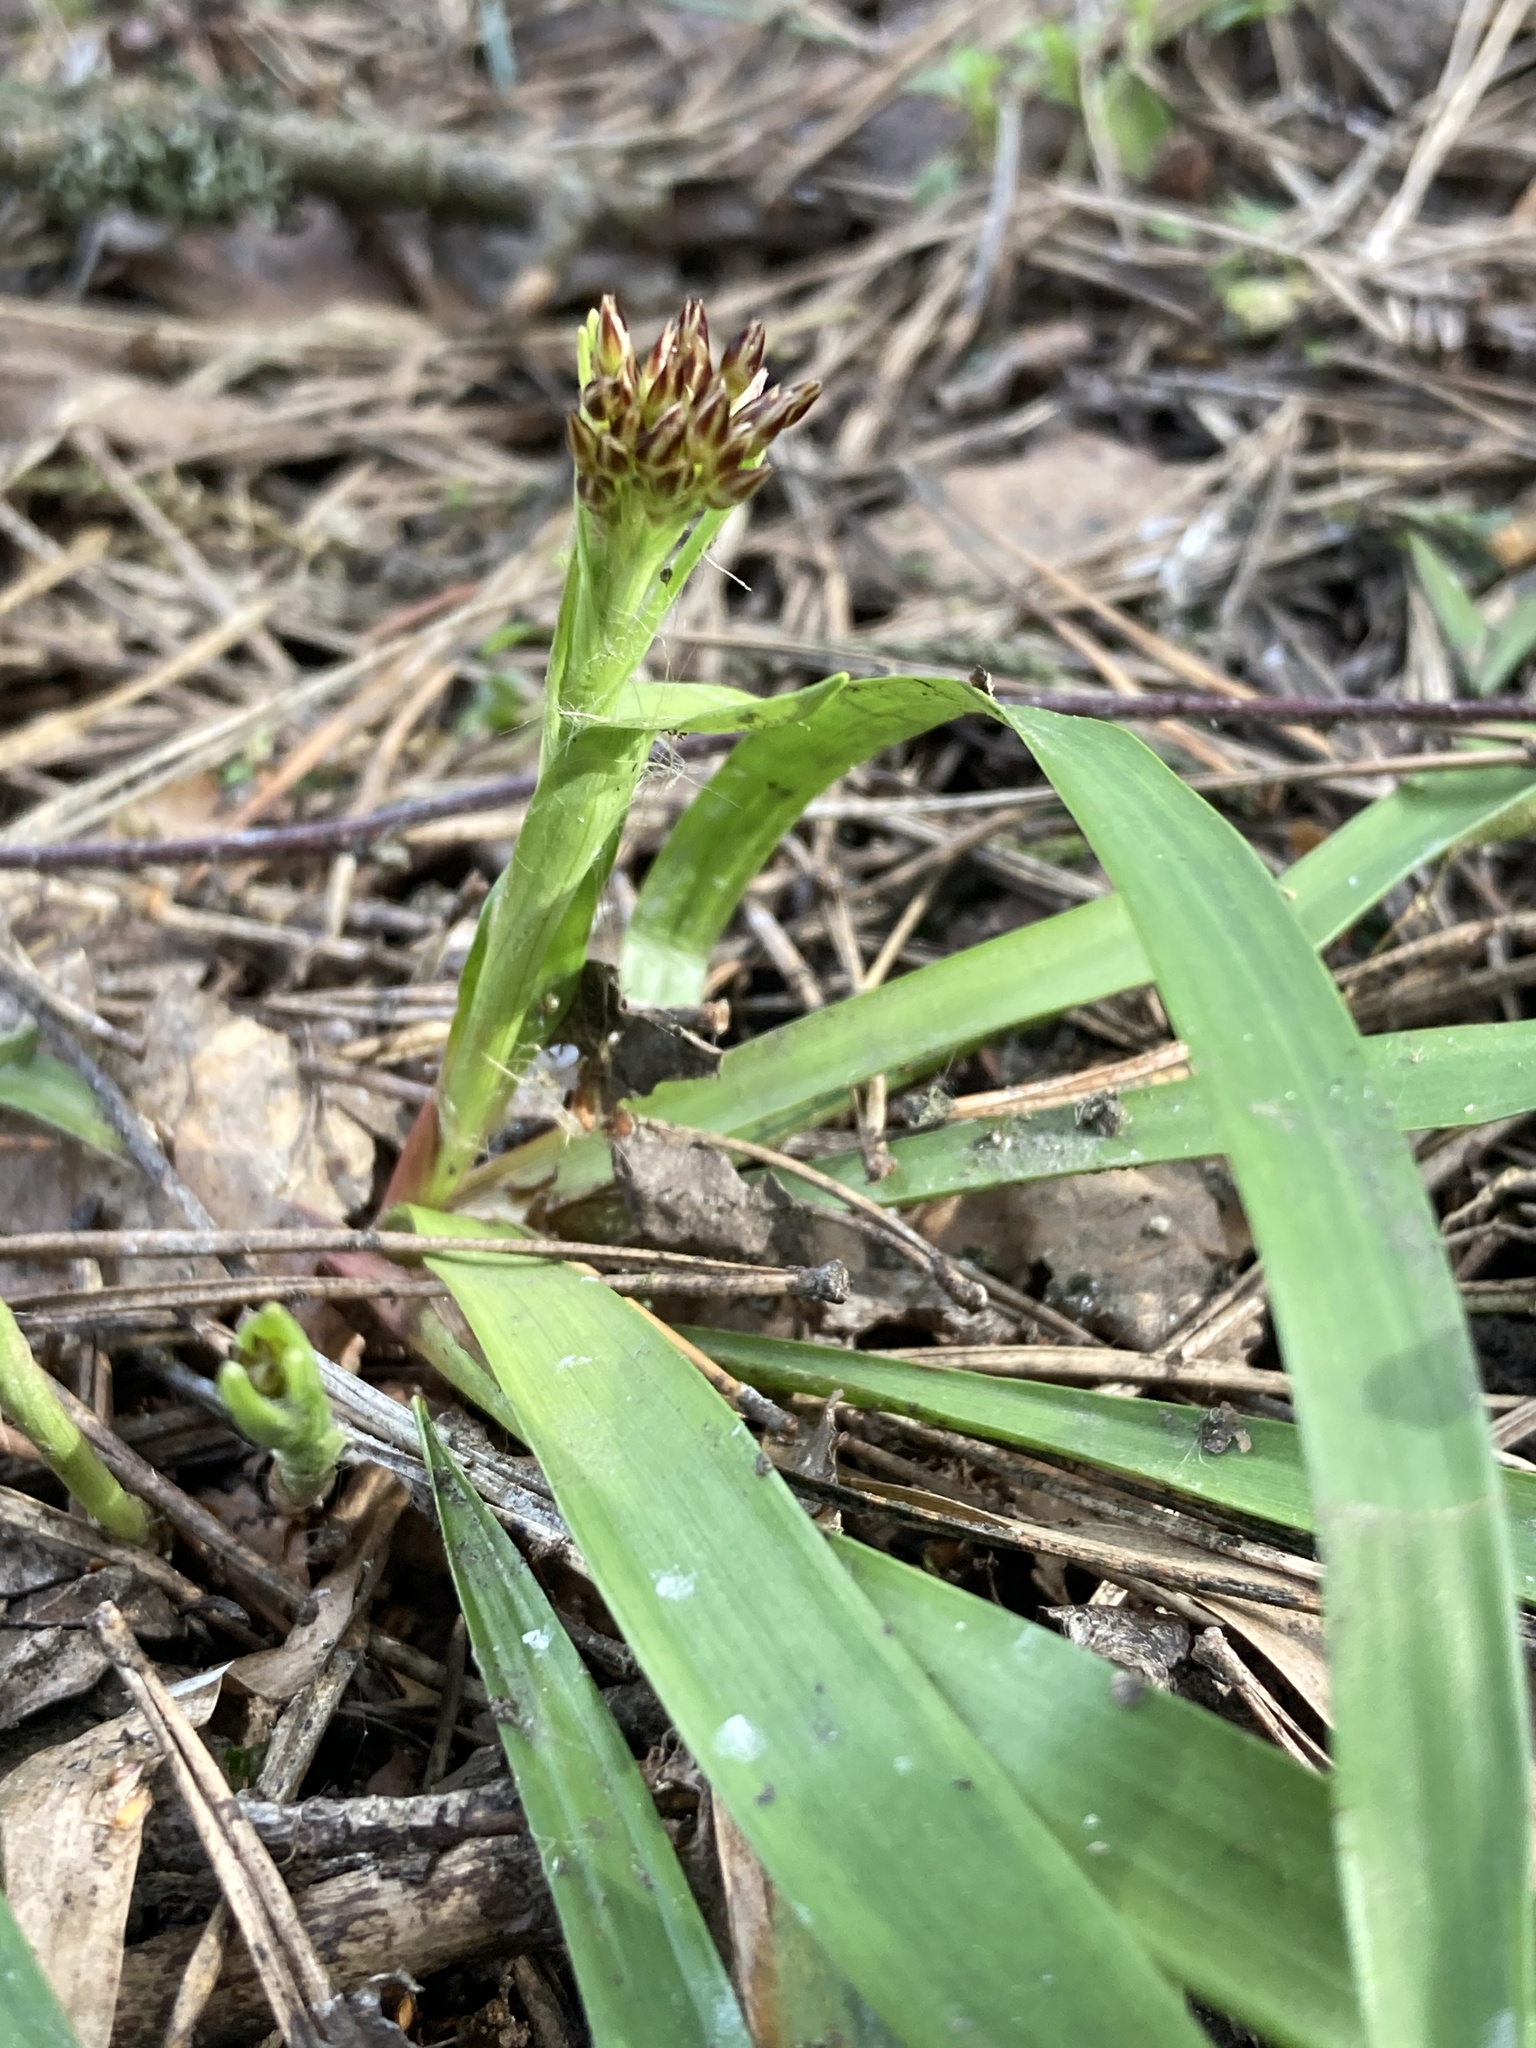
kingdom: Plantae
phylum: Tracheophyta
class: Liliopsida
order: Poales
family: Juncaceae
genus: Luzula
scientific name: Luzula pilosa
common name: Hairy wood-rush
